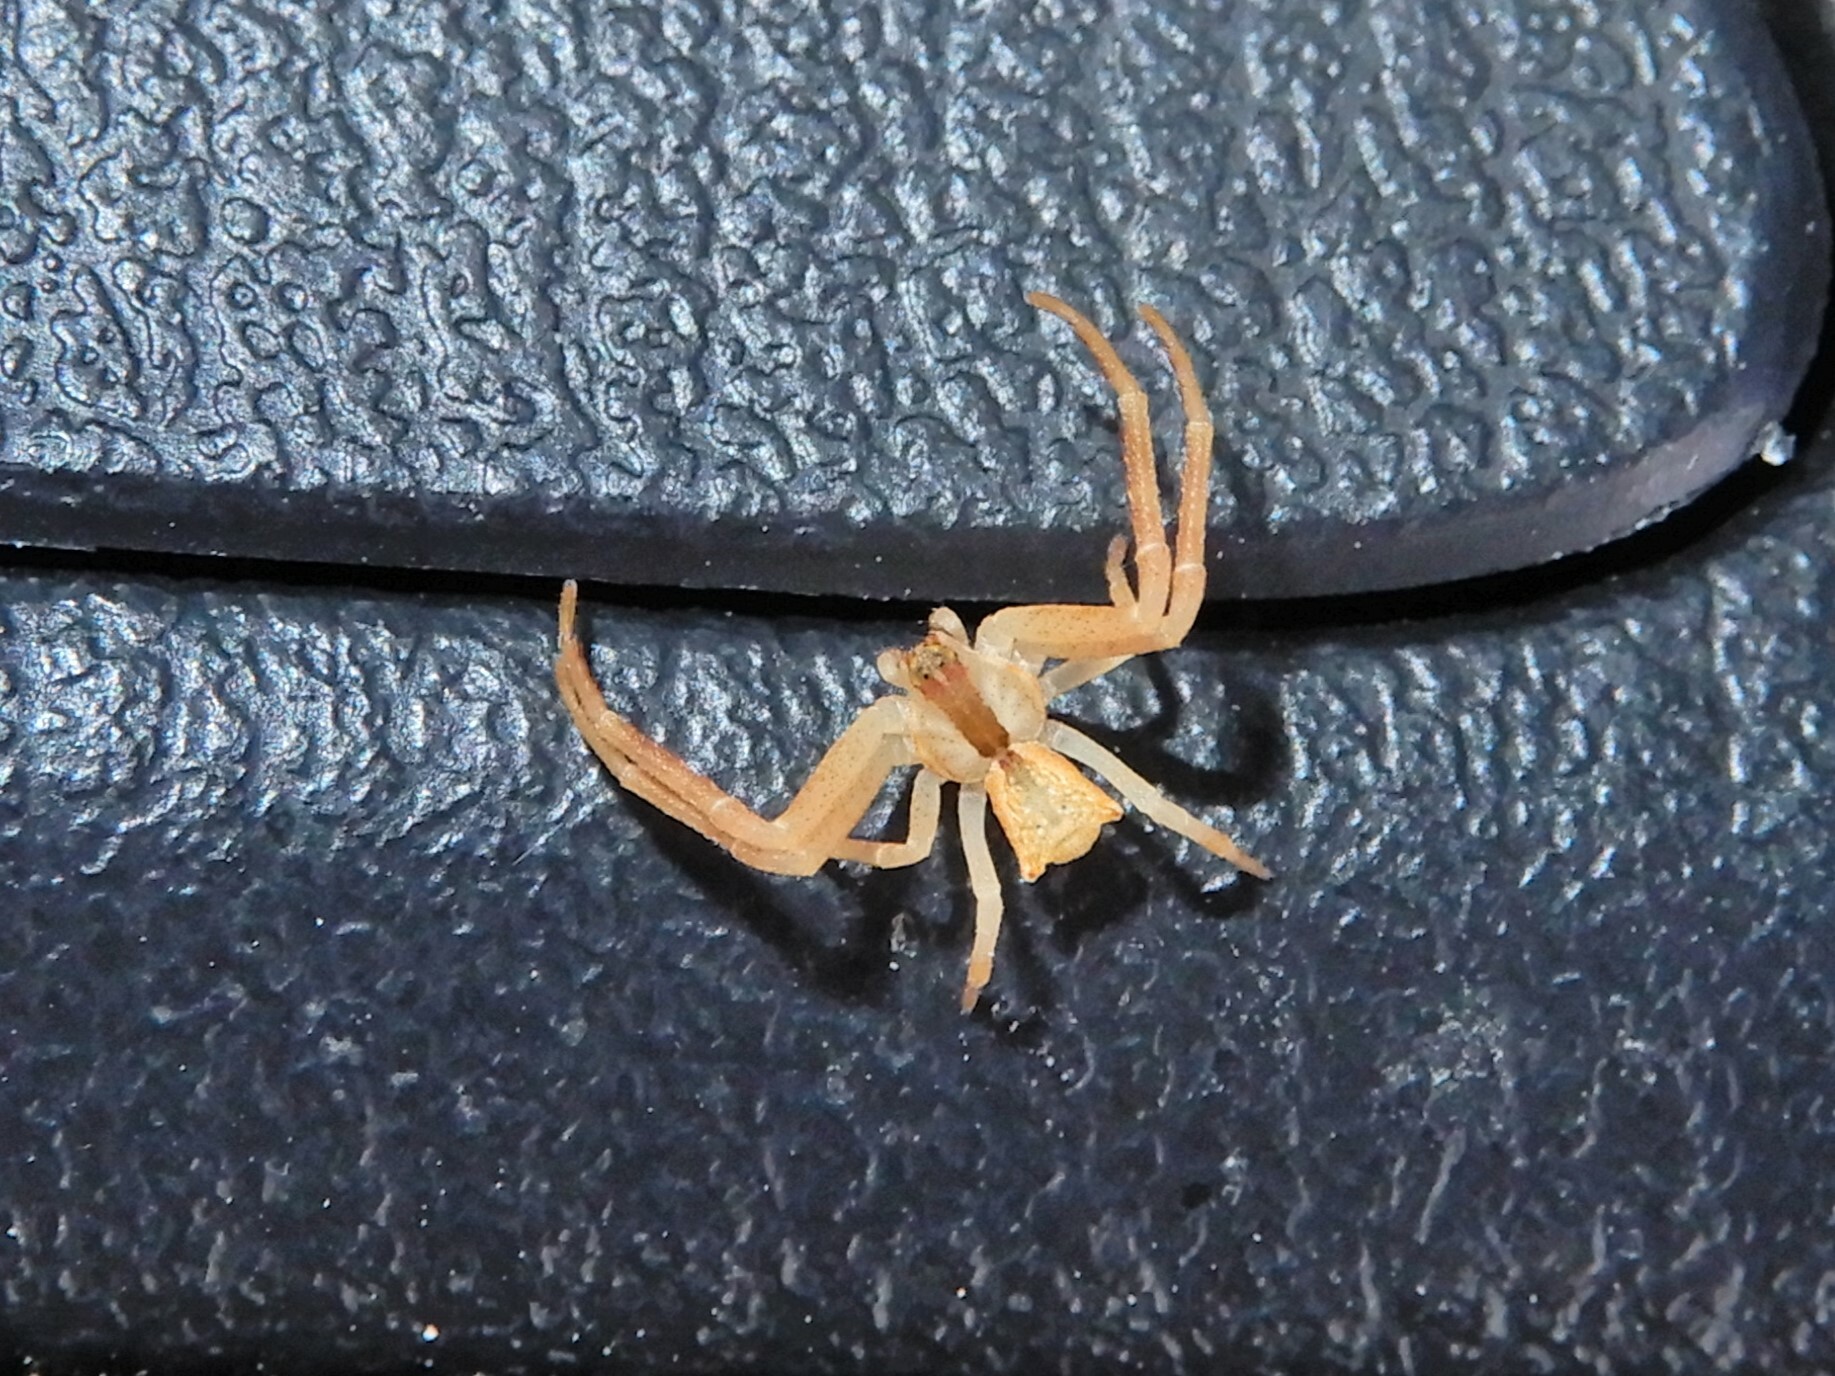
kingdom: Animalia
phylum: Arthropoda
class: Arachnida
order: Araneae
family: Thomisidae
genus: Sidymella
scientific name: Sidymella longipes
